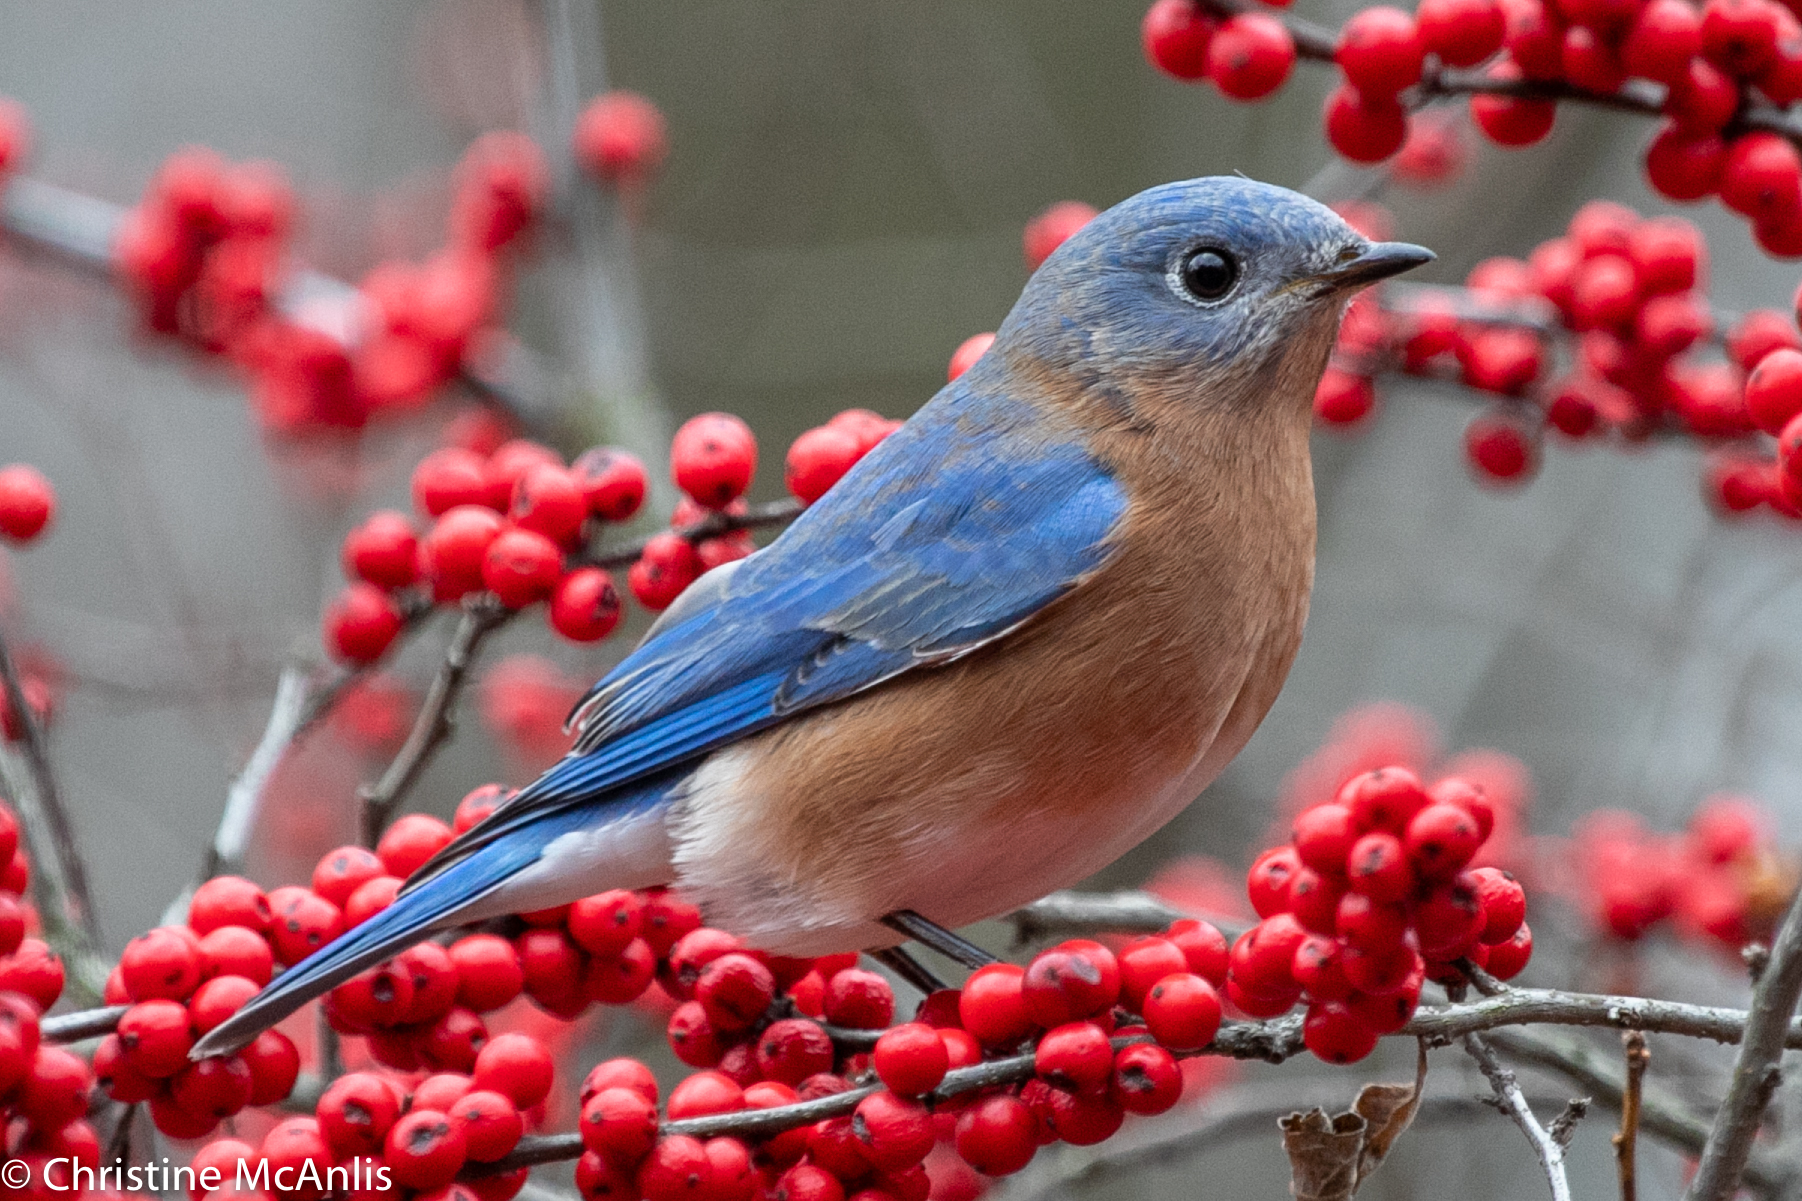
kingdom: Animalia
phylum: Chordata
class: Aves
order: Passeriformes
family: Turdidae
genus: Sialia
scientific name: Sialia sialis
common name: Eastern bluebird
